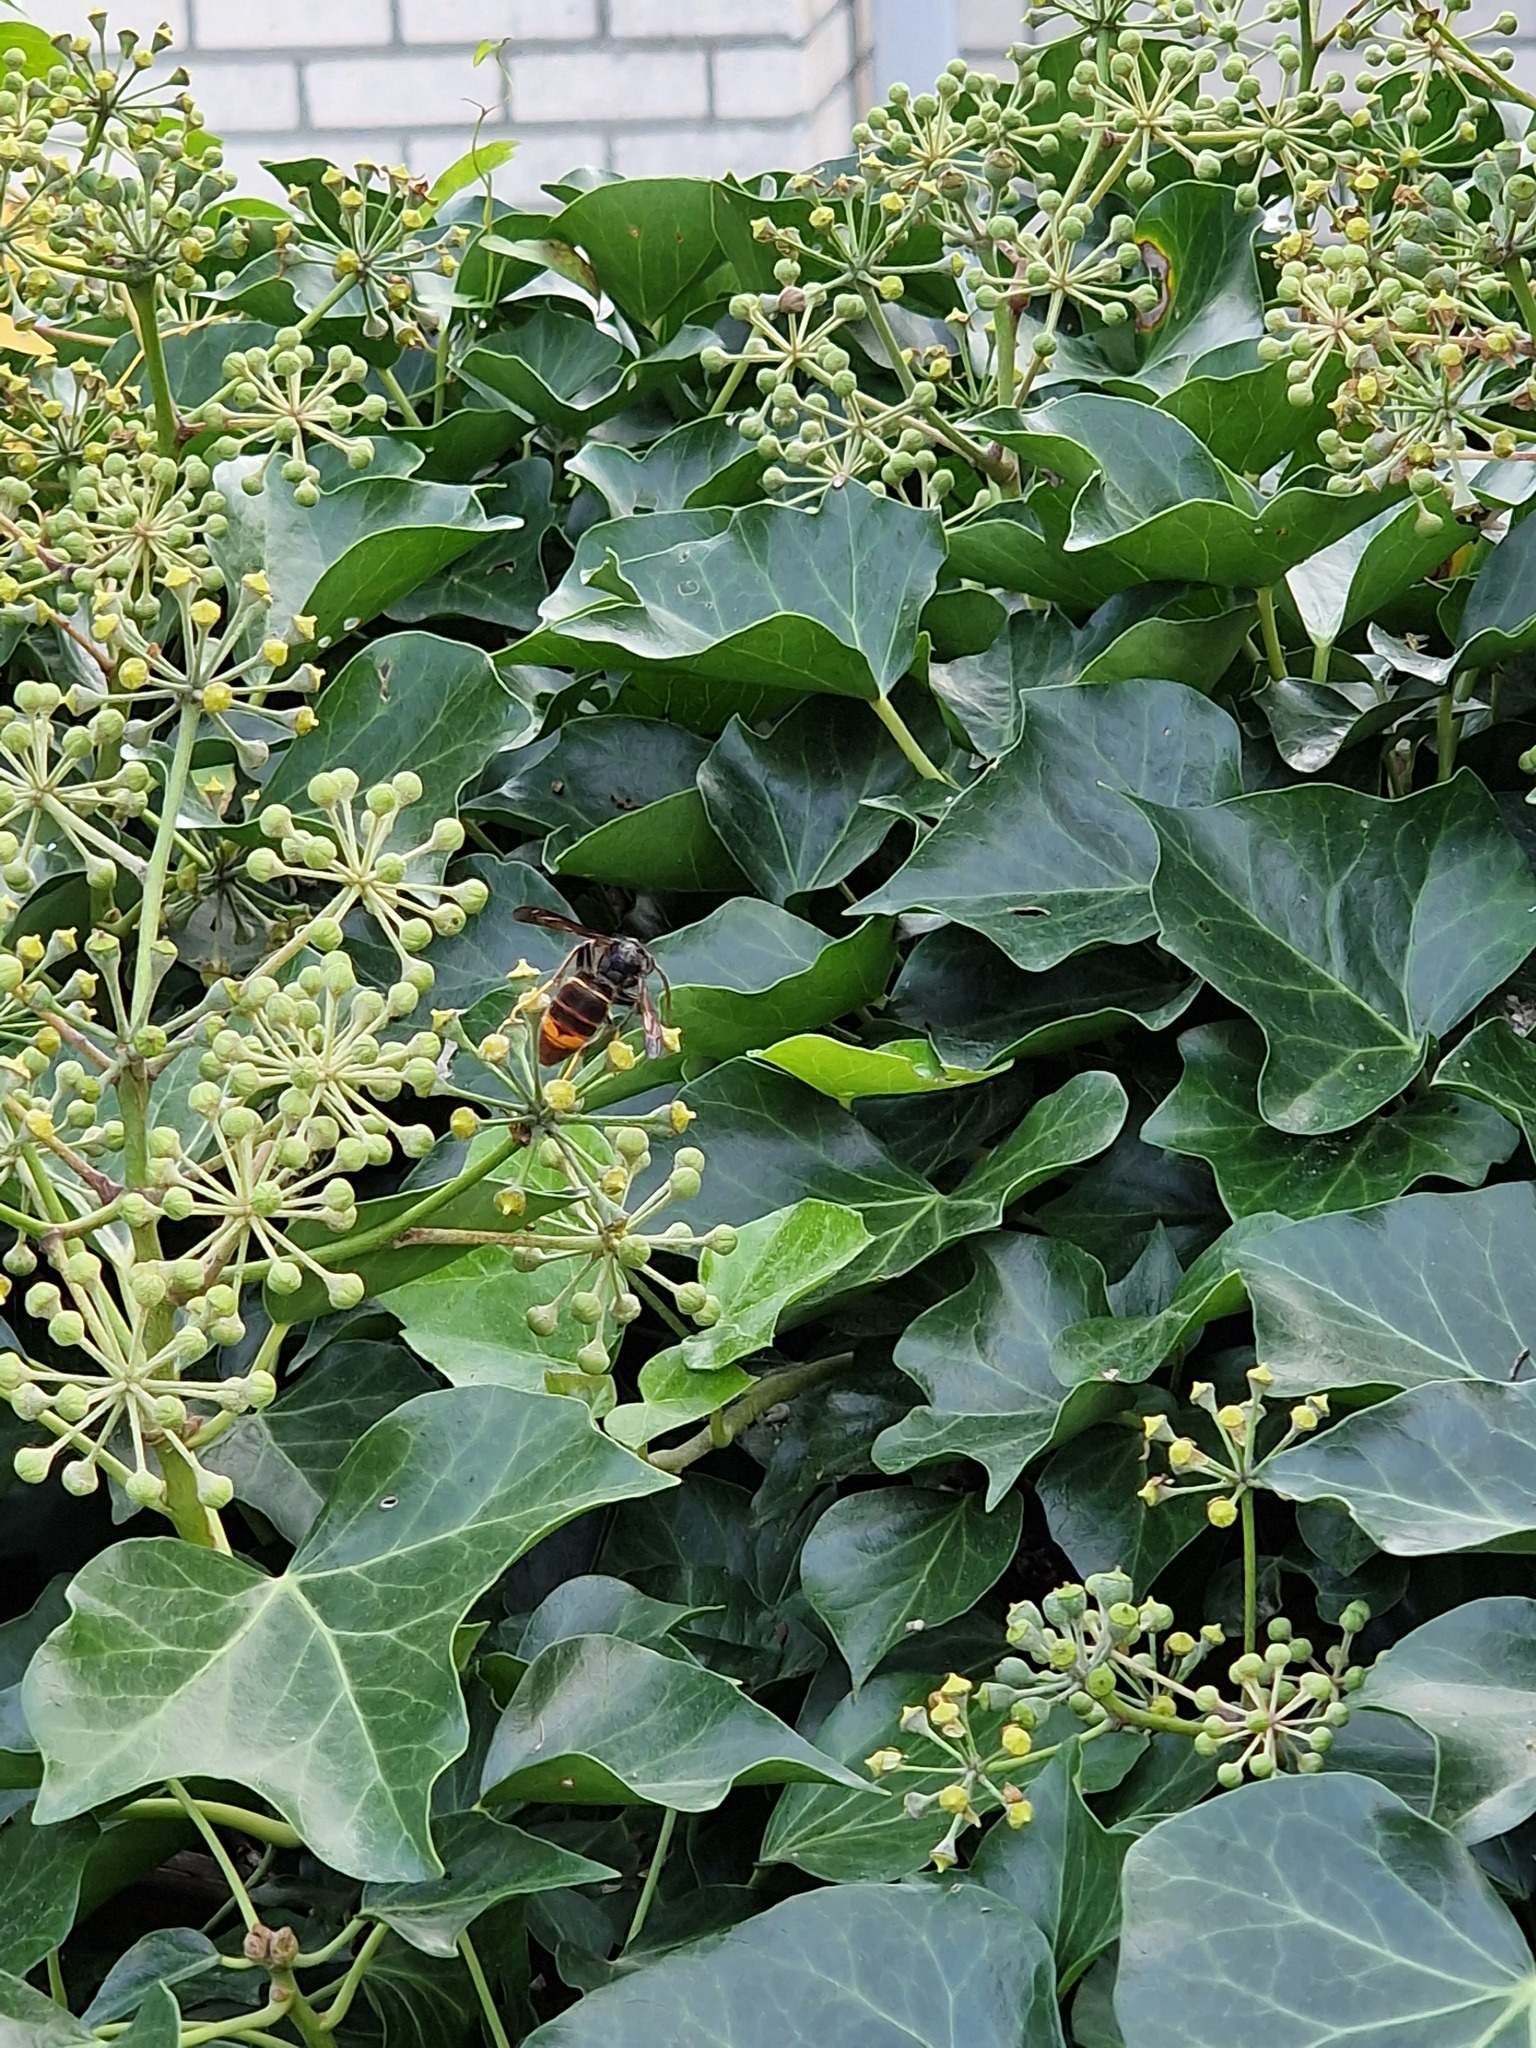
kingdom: Animalia
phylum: Arthropoda
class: Insecta
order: Hymenoptera
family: Vespidae
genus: Vespa
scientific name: Vespa velutina
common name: Asian hornet
